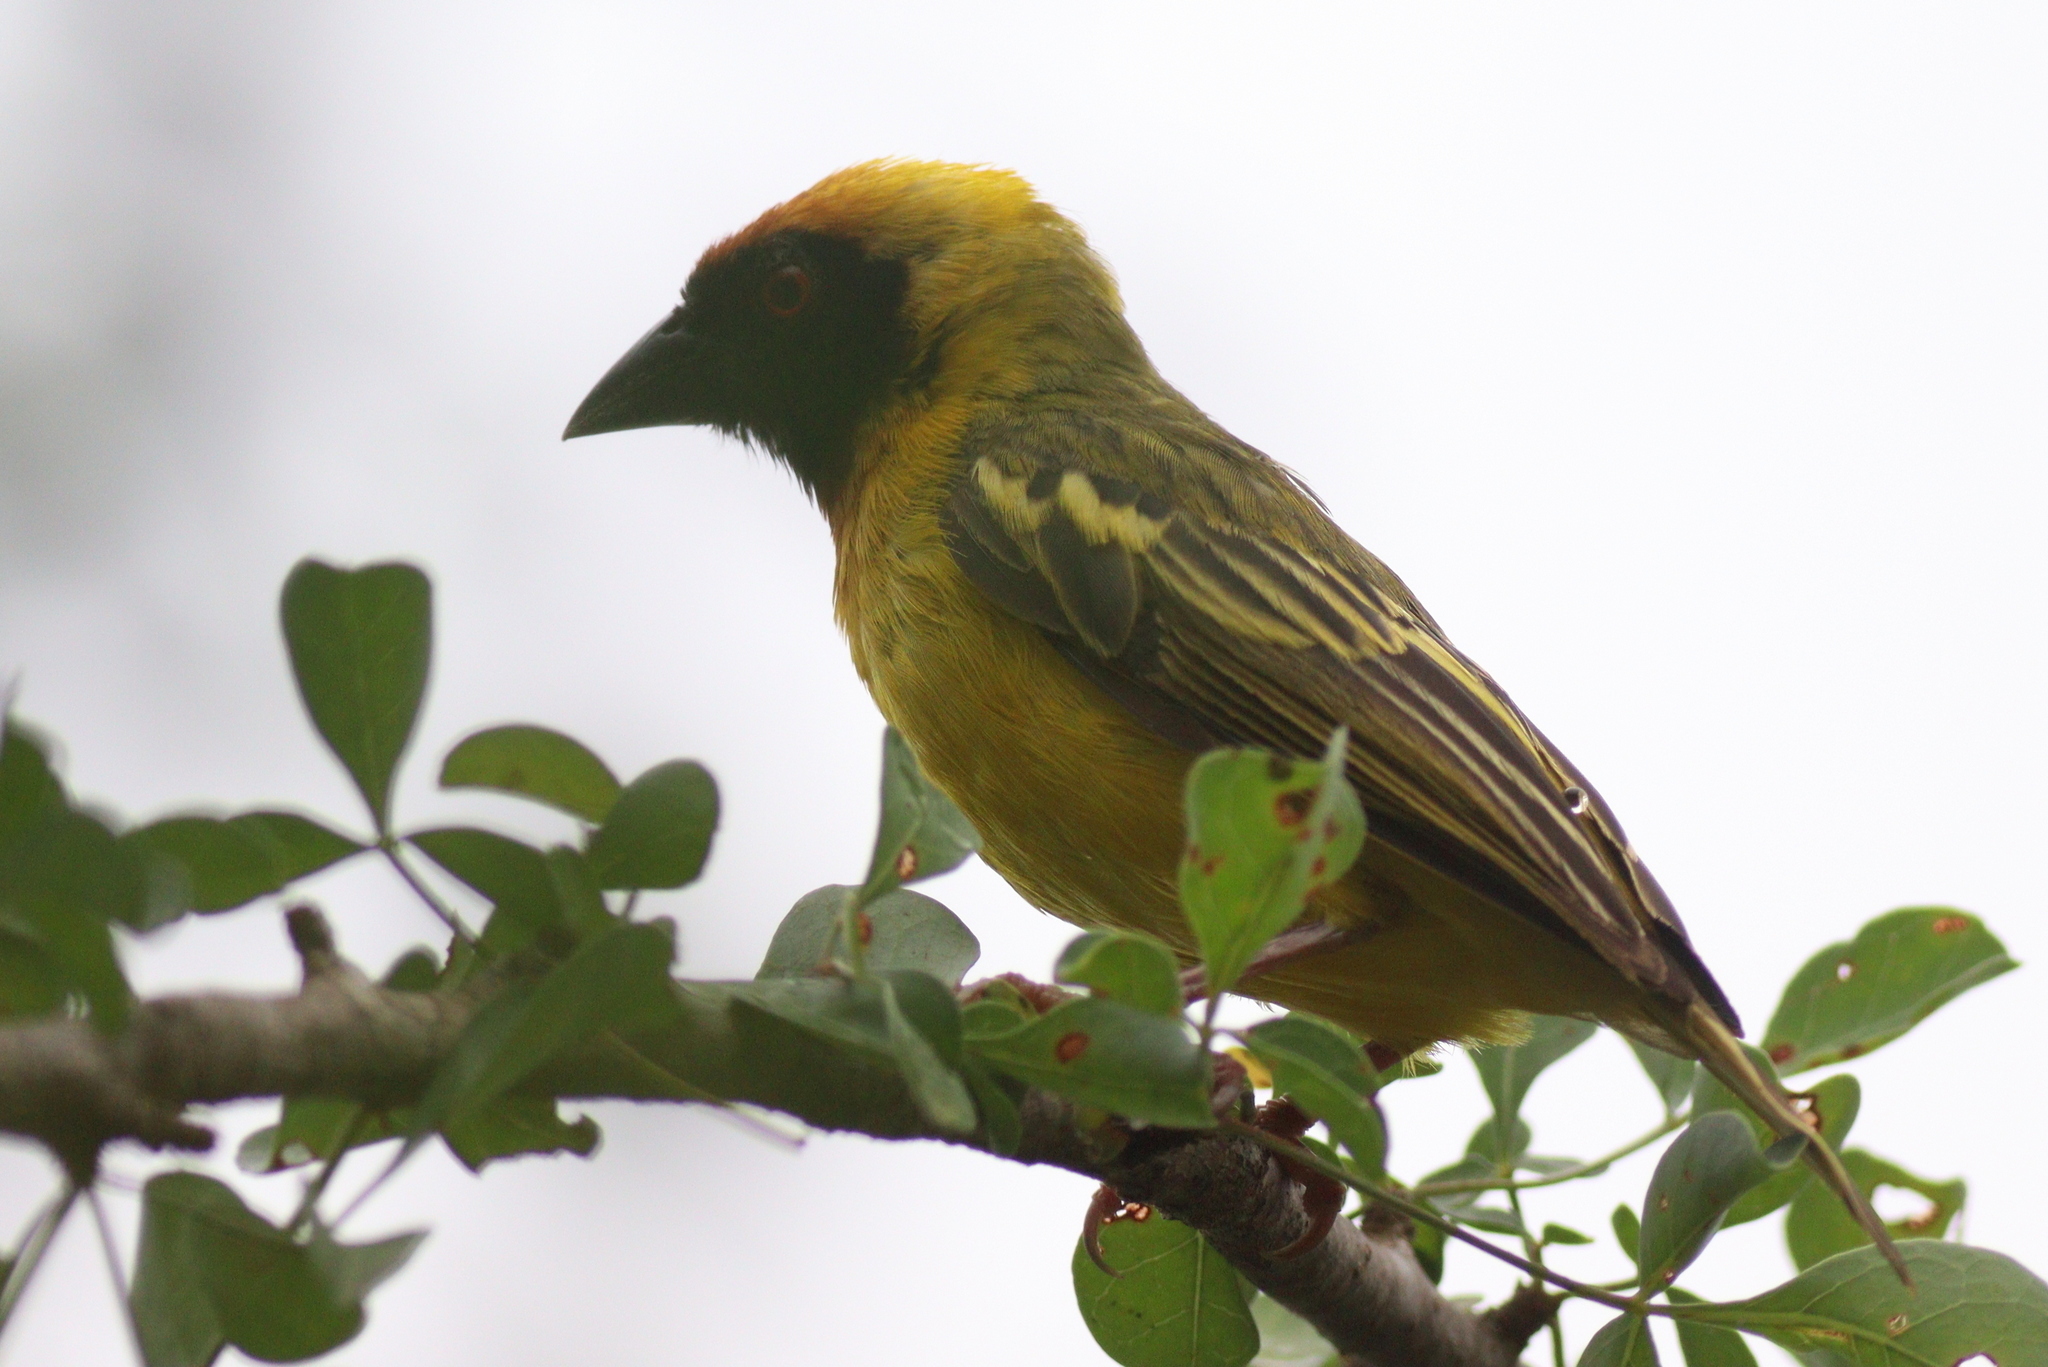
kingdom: Animalia
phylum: Chordata
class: Aves
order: Passeriformes
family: Ploceidae
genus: Ploceus
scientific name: Ploceus vitellinus
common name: Vitelline masked weaver
